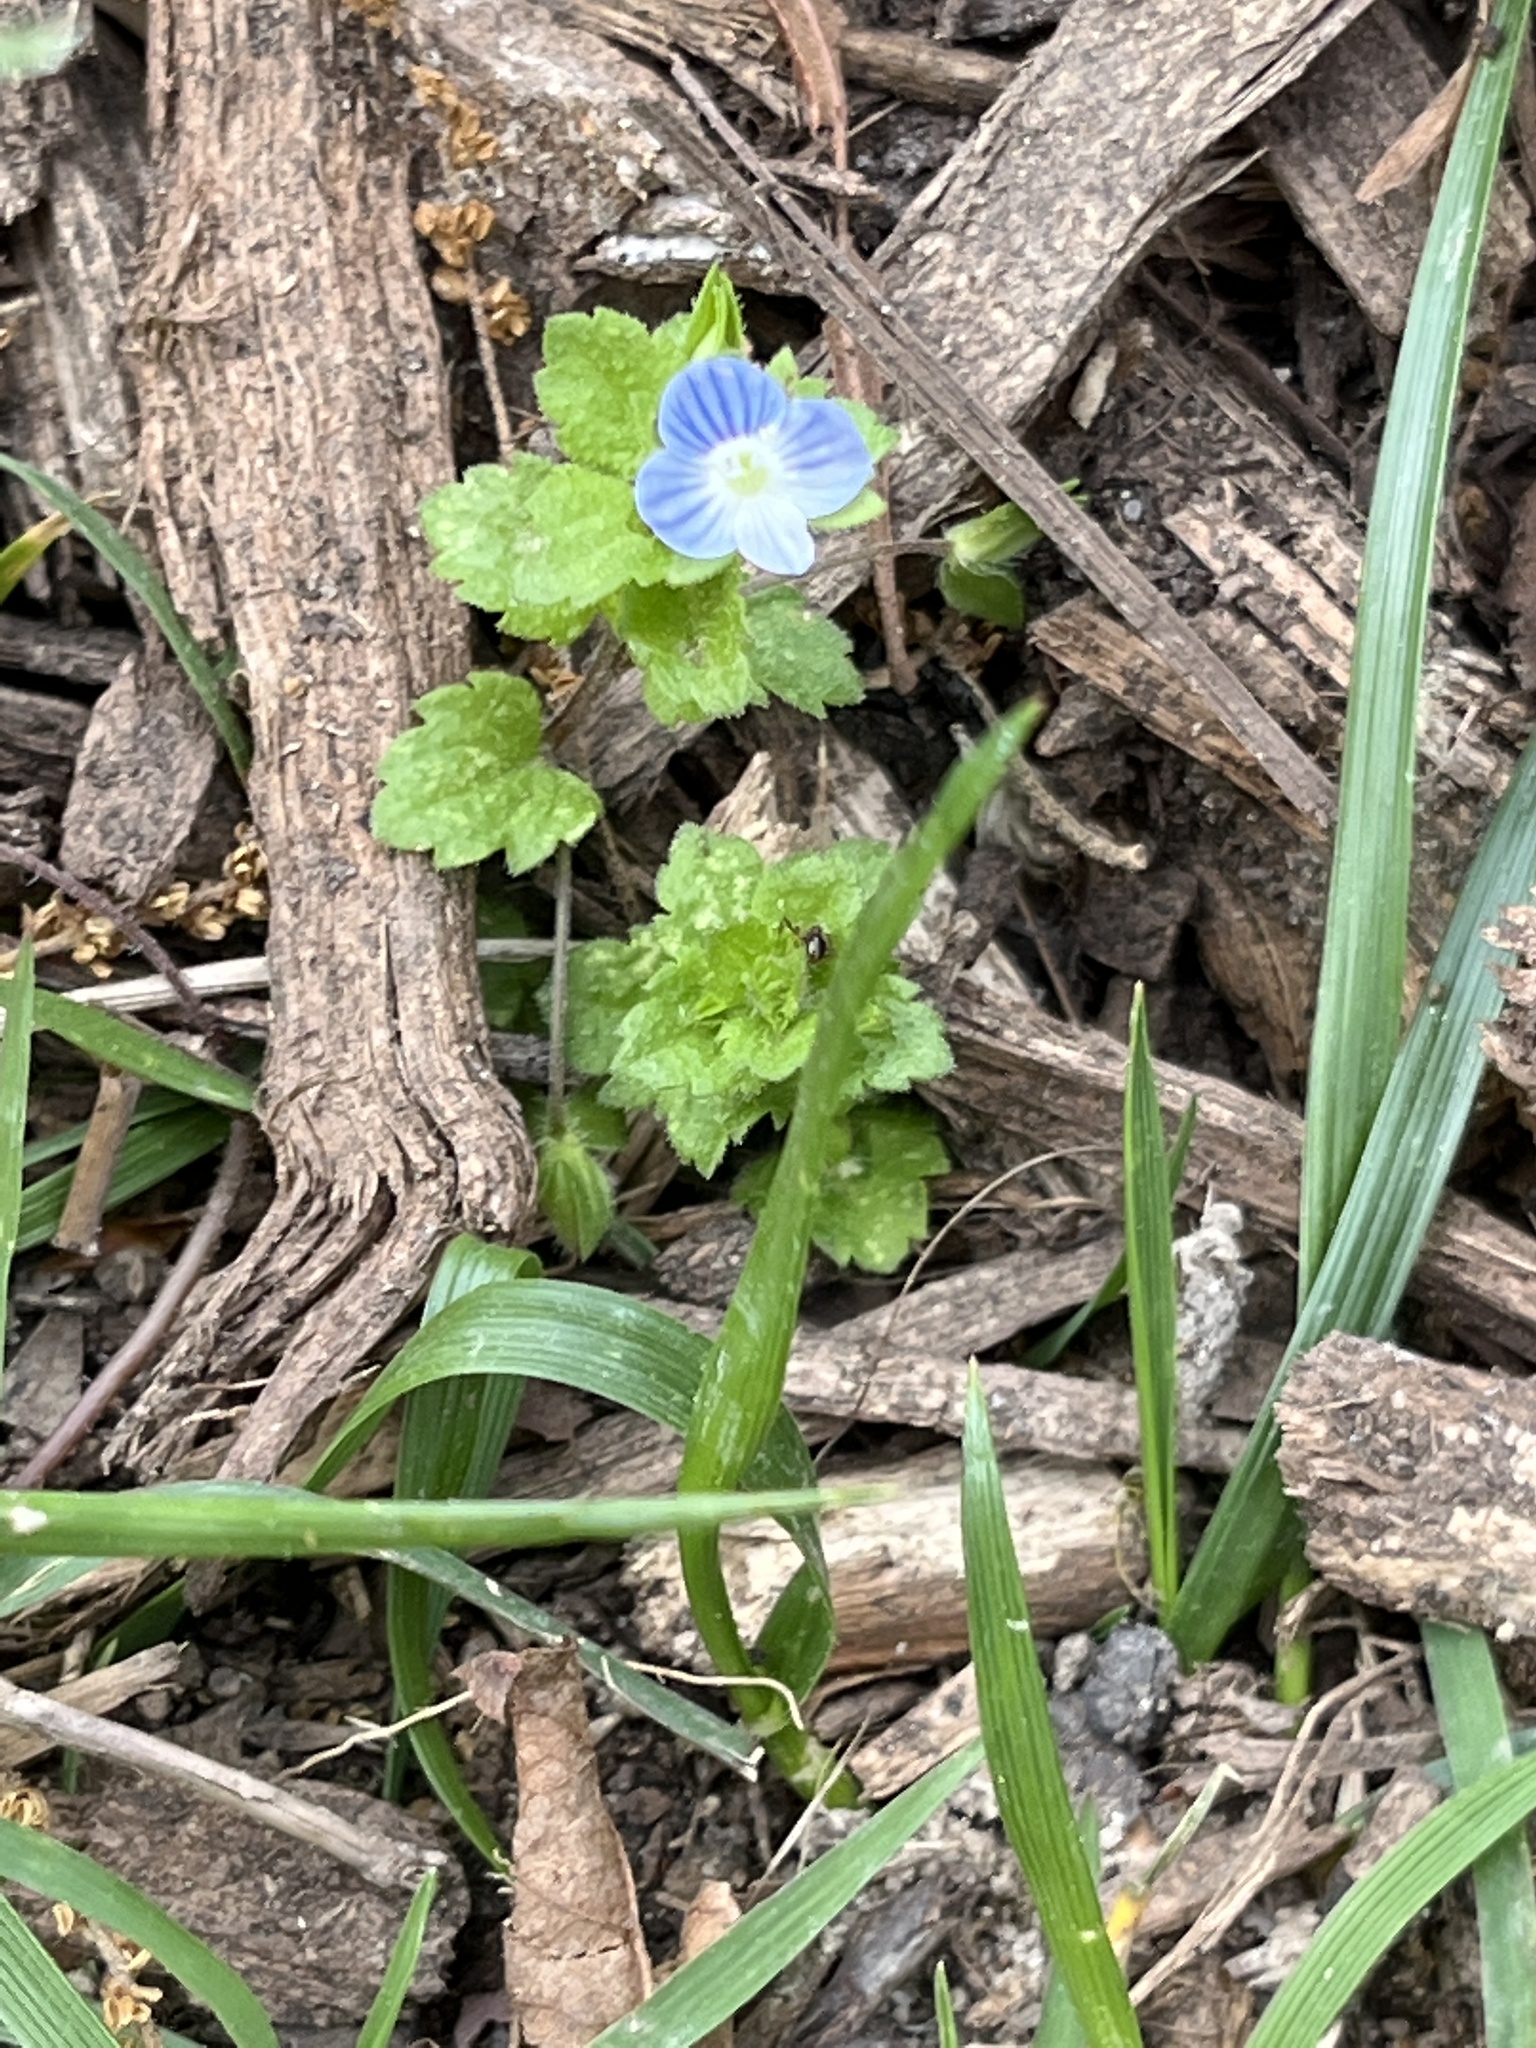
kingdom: Plantae
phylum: Tracheophyta
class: Magnoliopsida
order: Lamiales
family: Plantaginaceae
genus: Veronica
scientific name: Veronica persica
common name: Common field-speedwell
